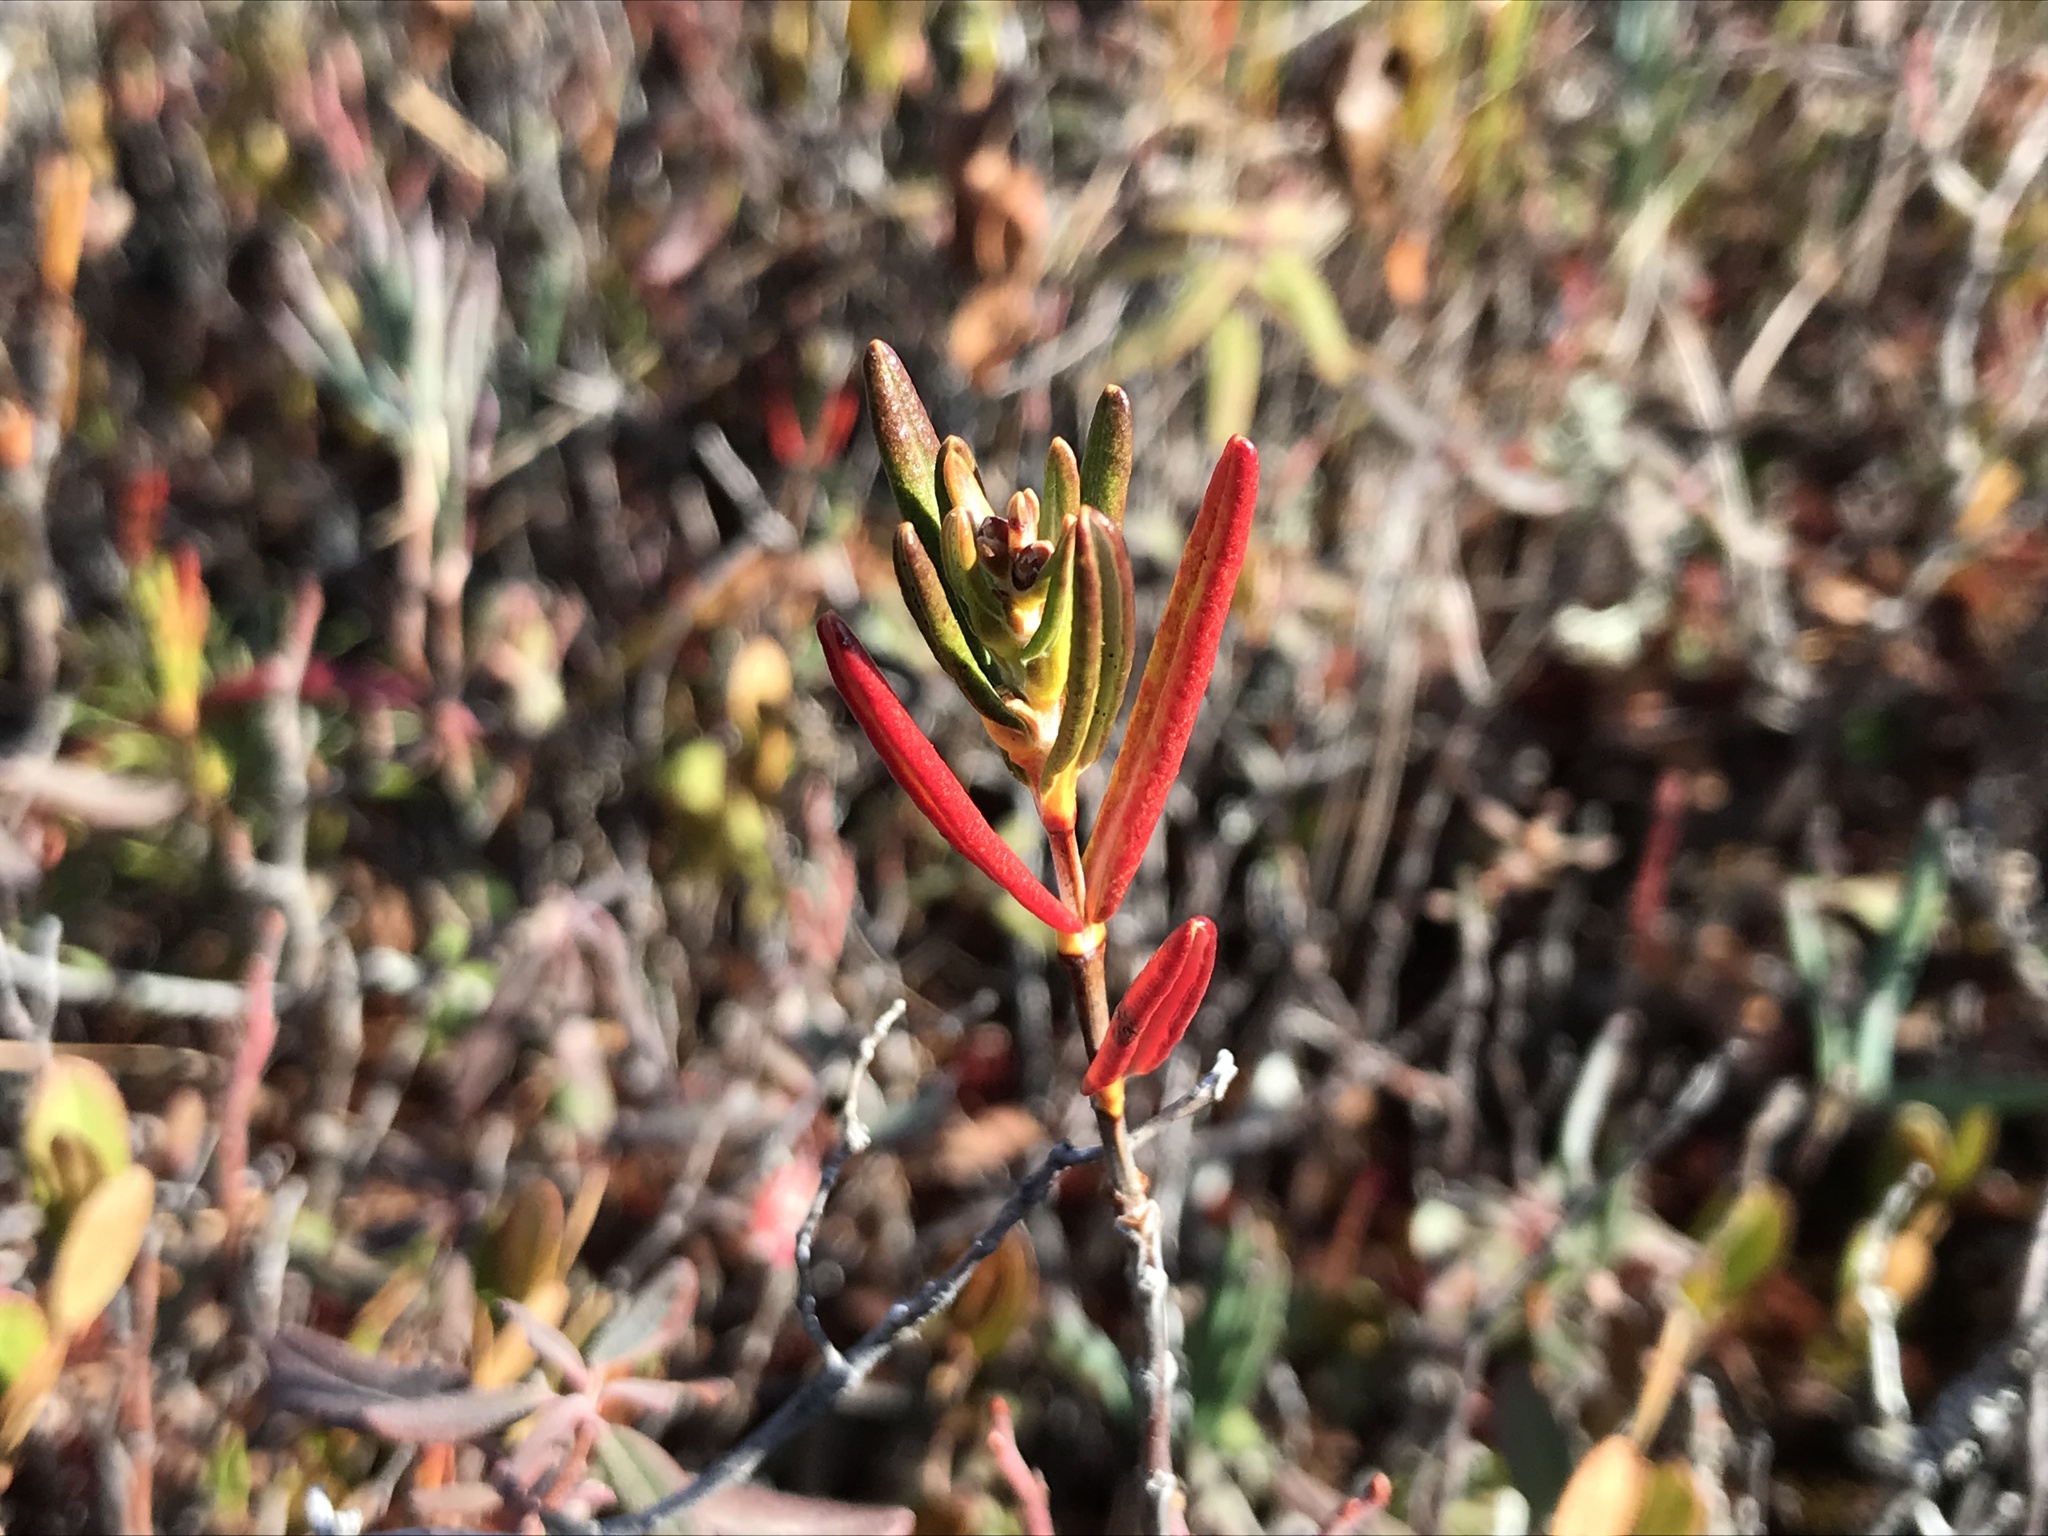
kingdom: Plantae
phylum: Tracheophyta
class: Magnoliopsida
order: Ericales
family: Ericaceae
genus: Kalmia
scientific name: Kalmia polifolia
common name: Bog-laurel
